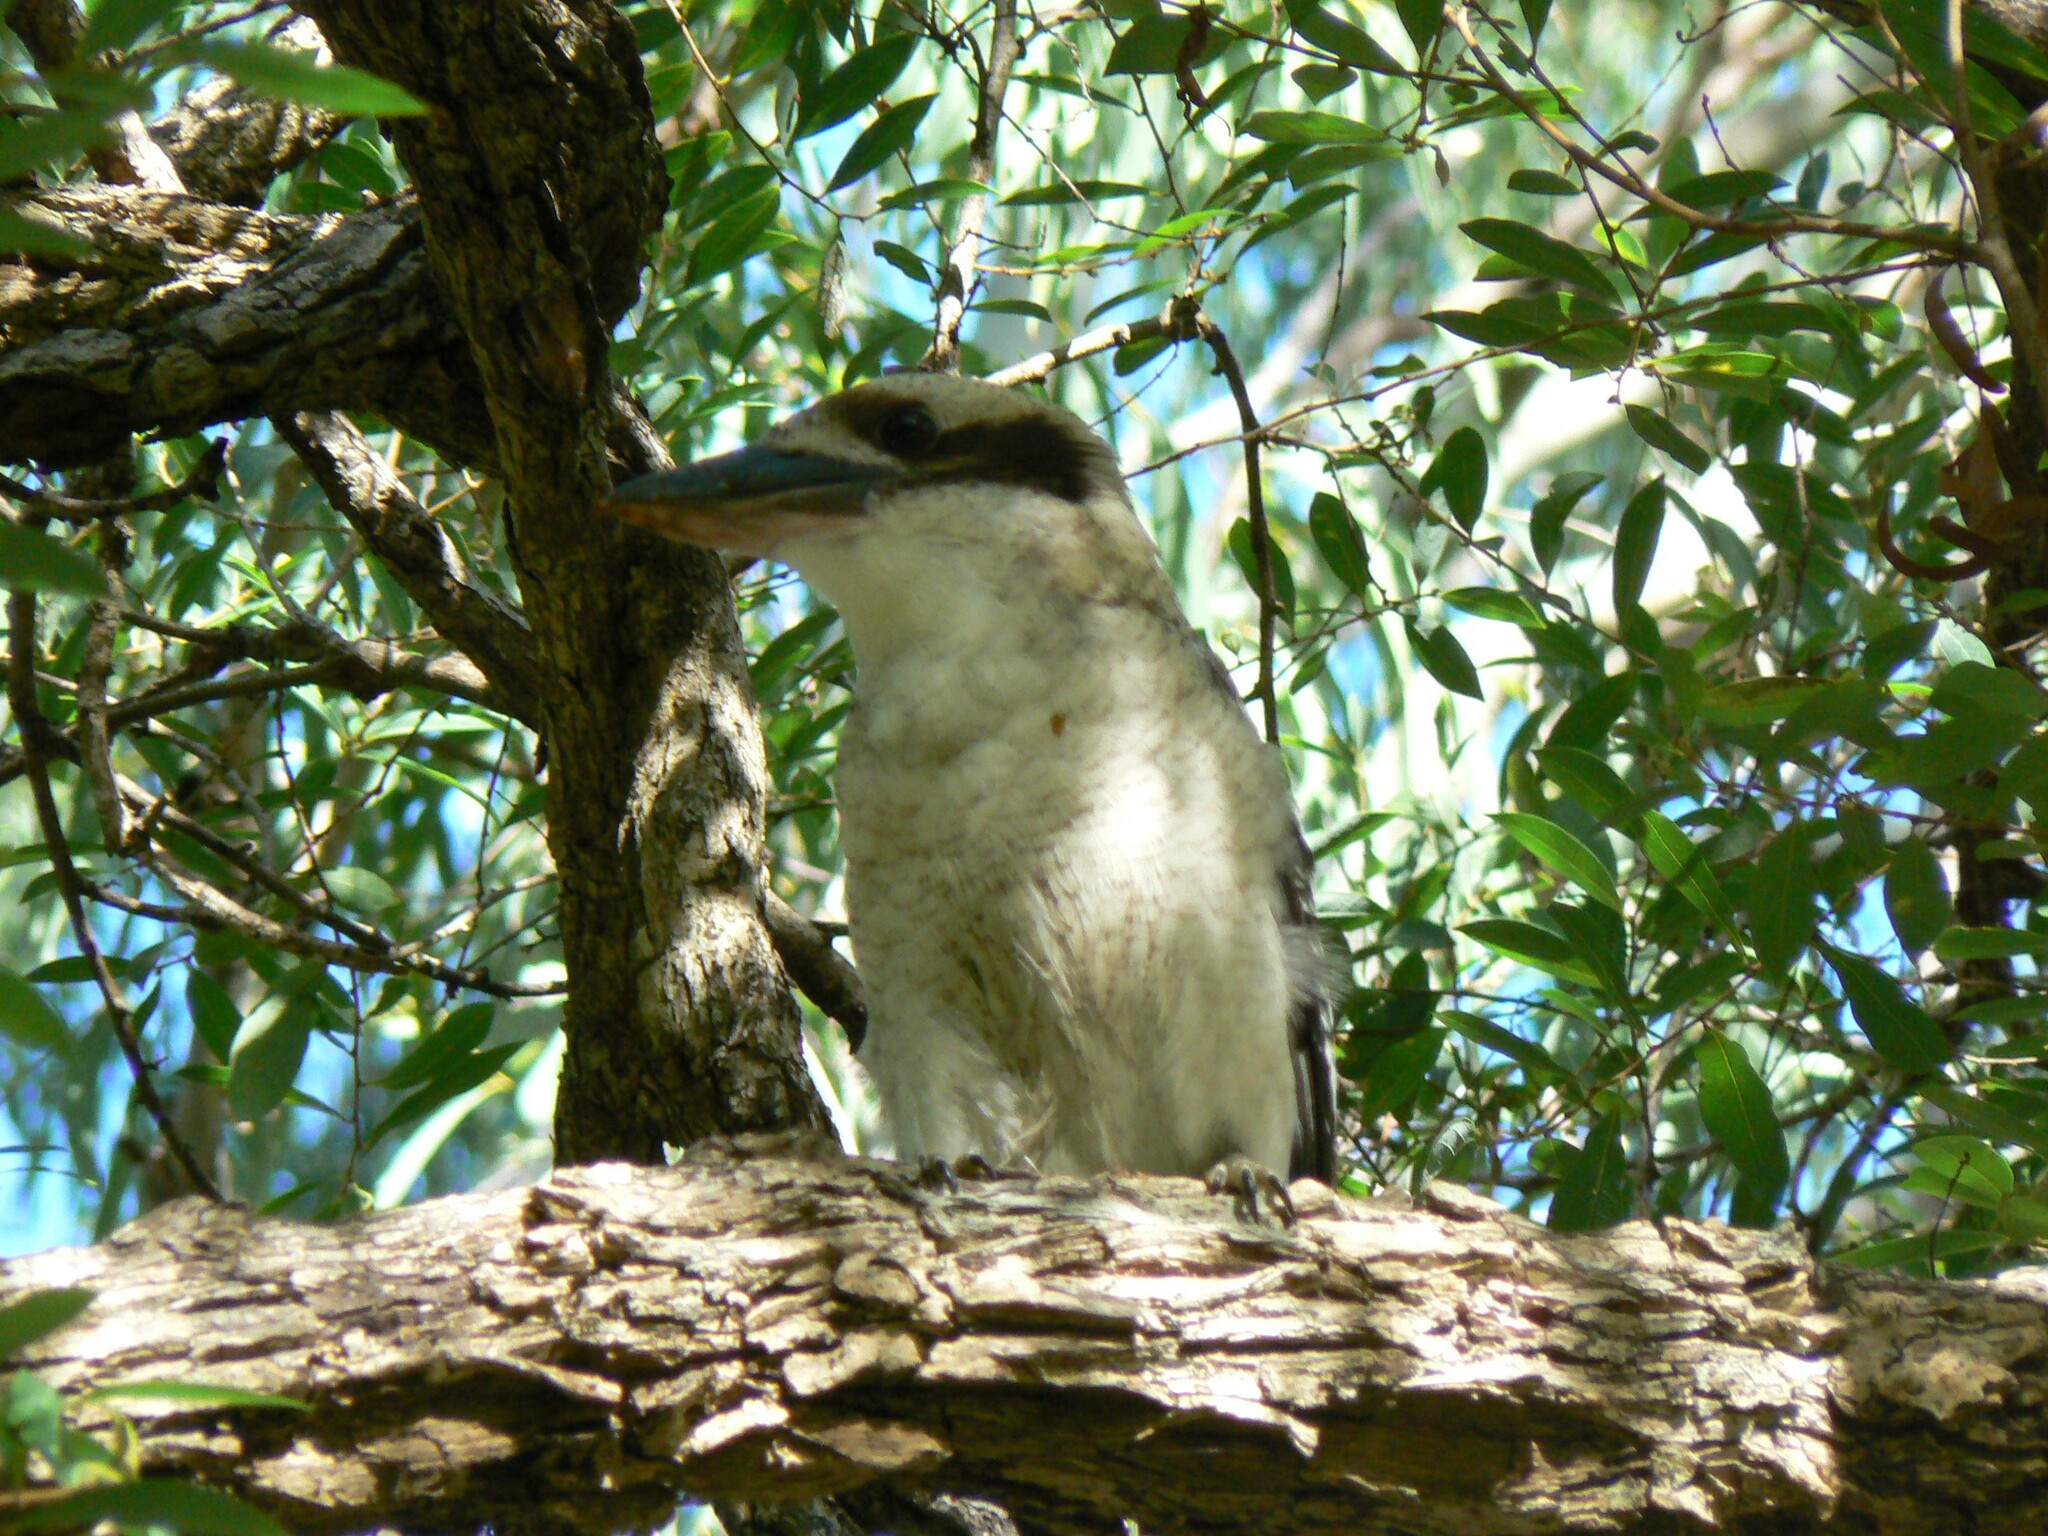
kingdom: Animalia
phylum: Chordata
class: Aves
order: Coraciiformes
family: Alcedinidae
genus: Dacelo
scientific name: Dacelo novaeguineae
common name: Laughing kookaburra
